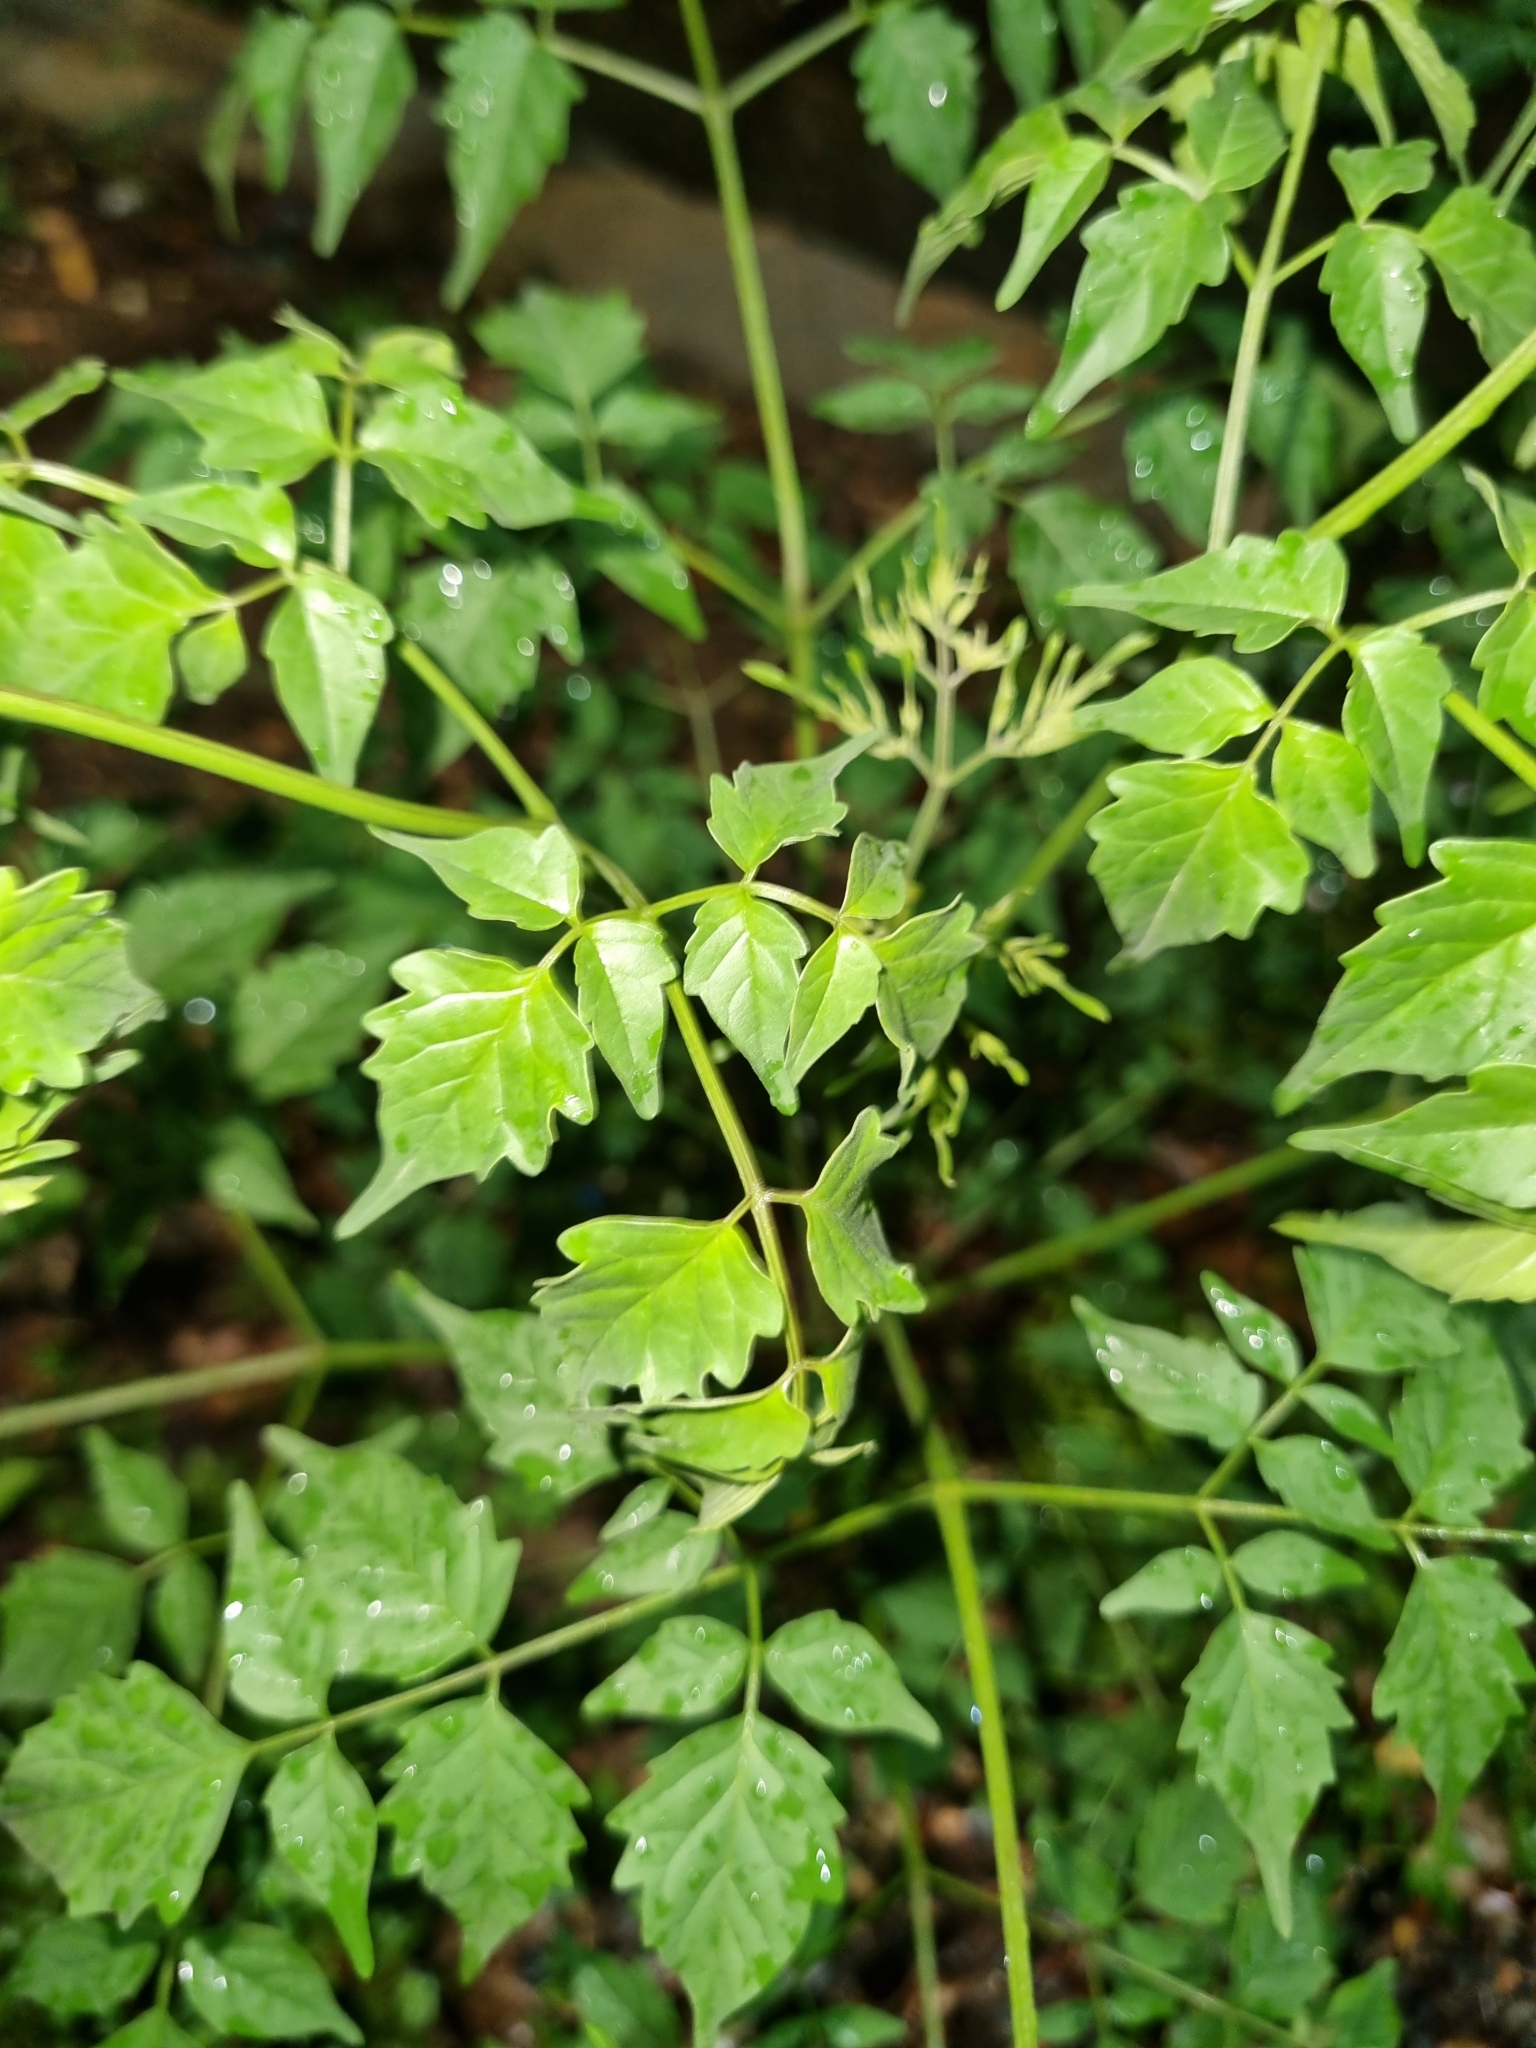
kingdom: Plantae
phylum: Tracheophyta
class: Magnoliopsida
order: Lamiales
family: Bignoniaceae
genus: Millingtonia
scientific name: Millingtonia hortensis
